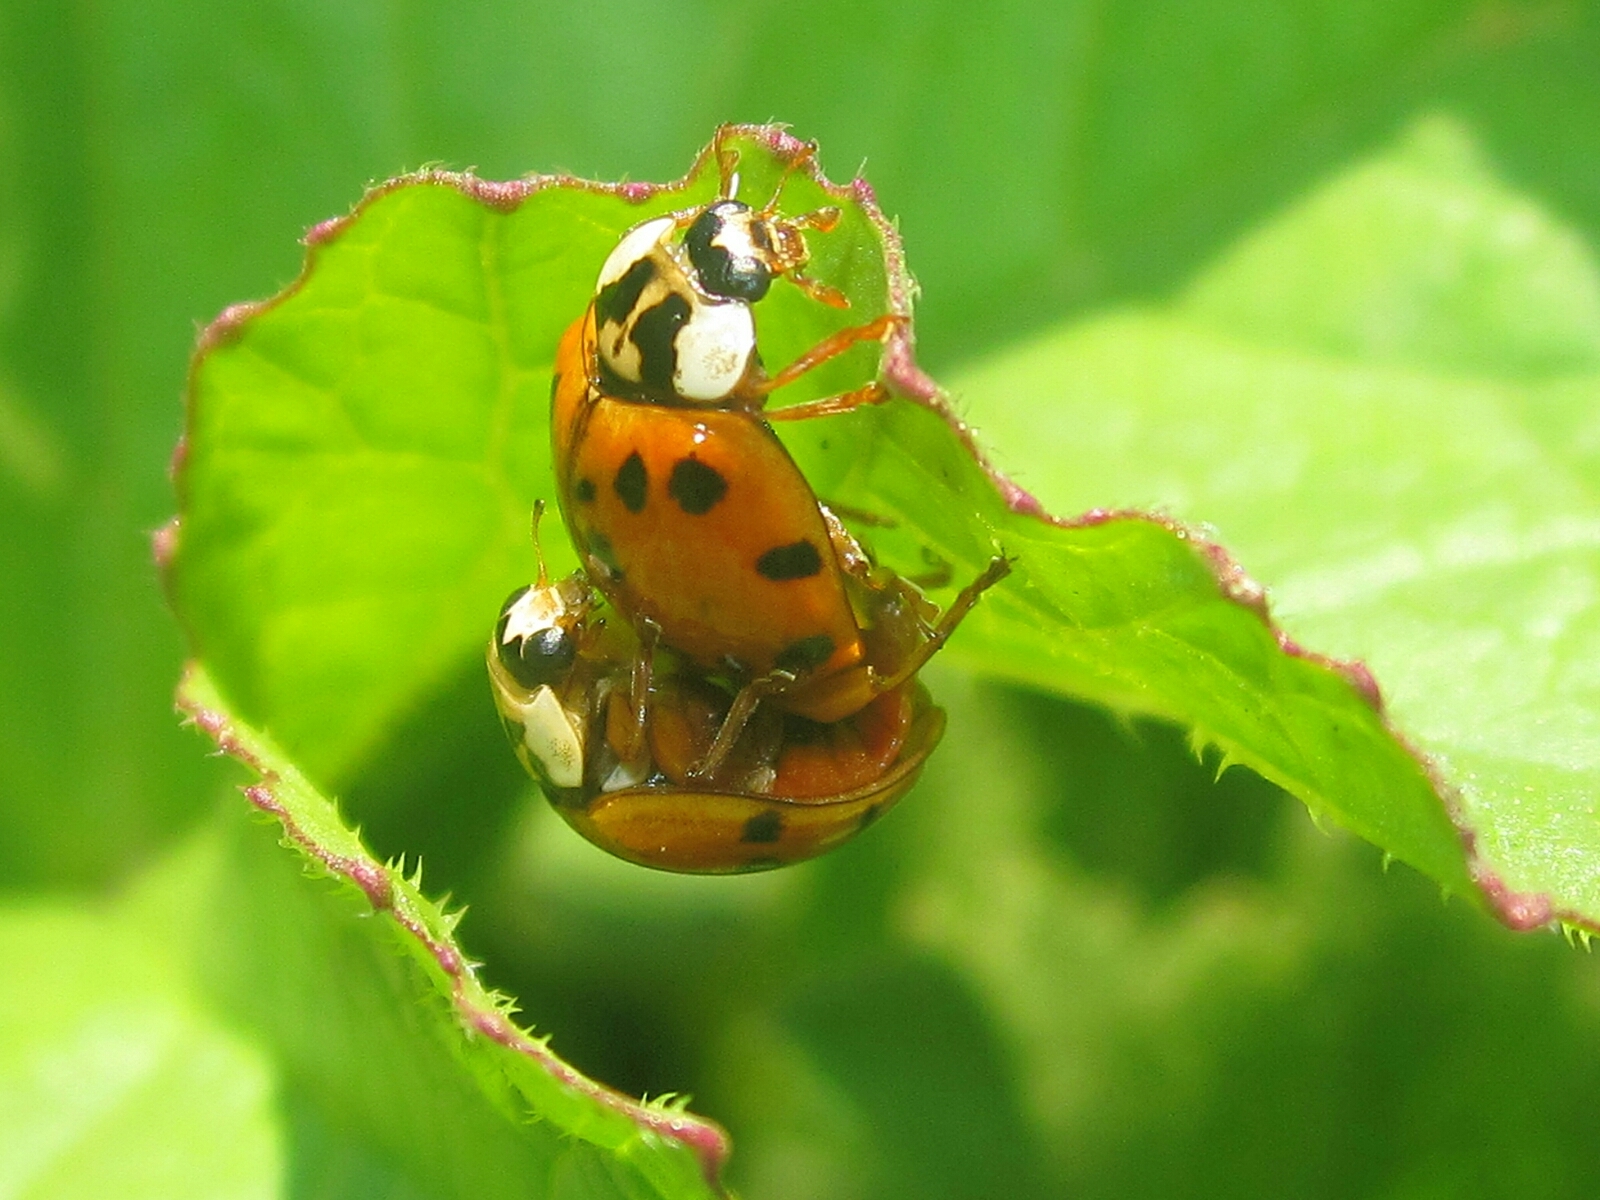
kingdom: Animalia
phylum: Arthropoda
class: Insecta
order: Coleoptera
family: Coccinellidae
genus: Harmonia
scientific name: Harmonia axyridis
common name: Harlequin ladybird
